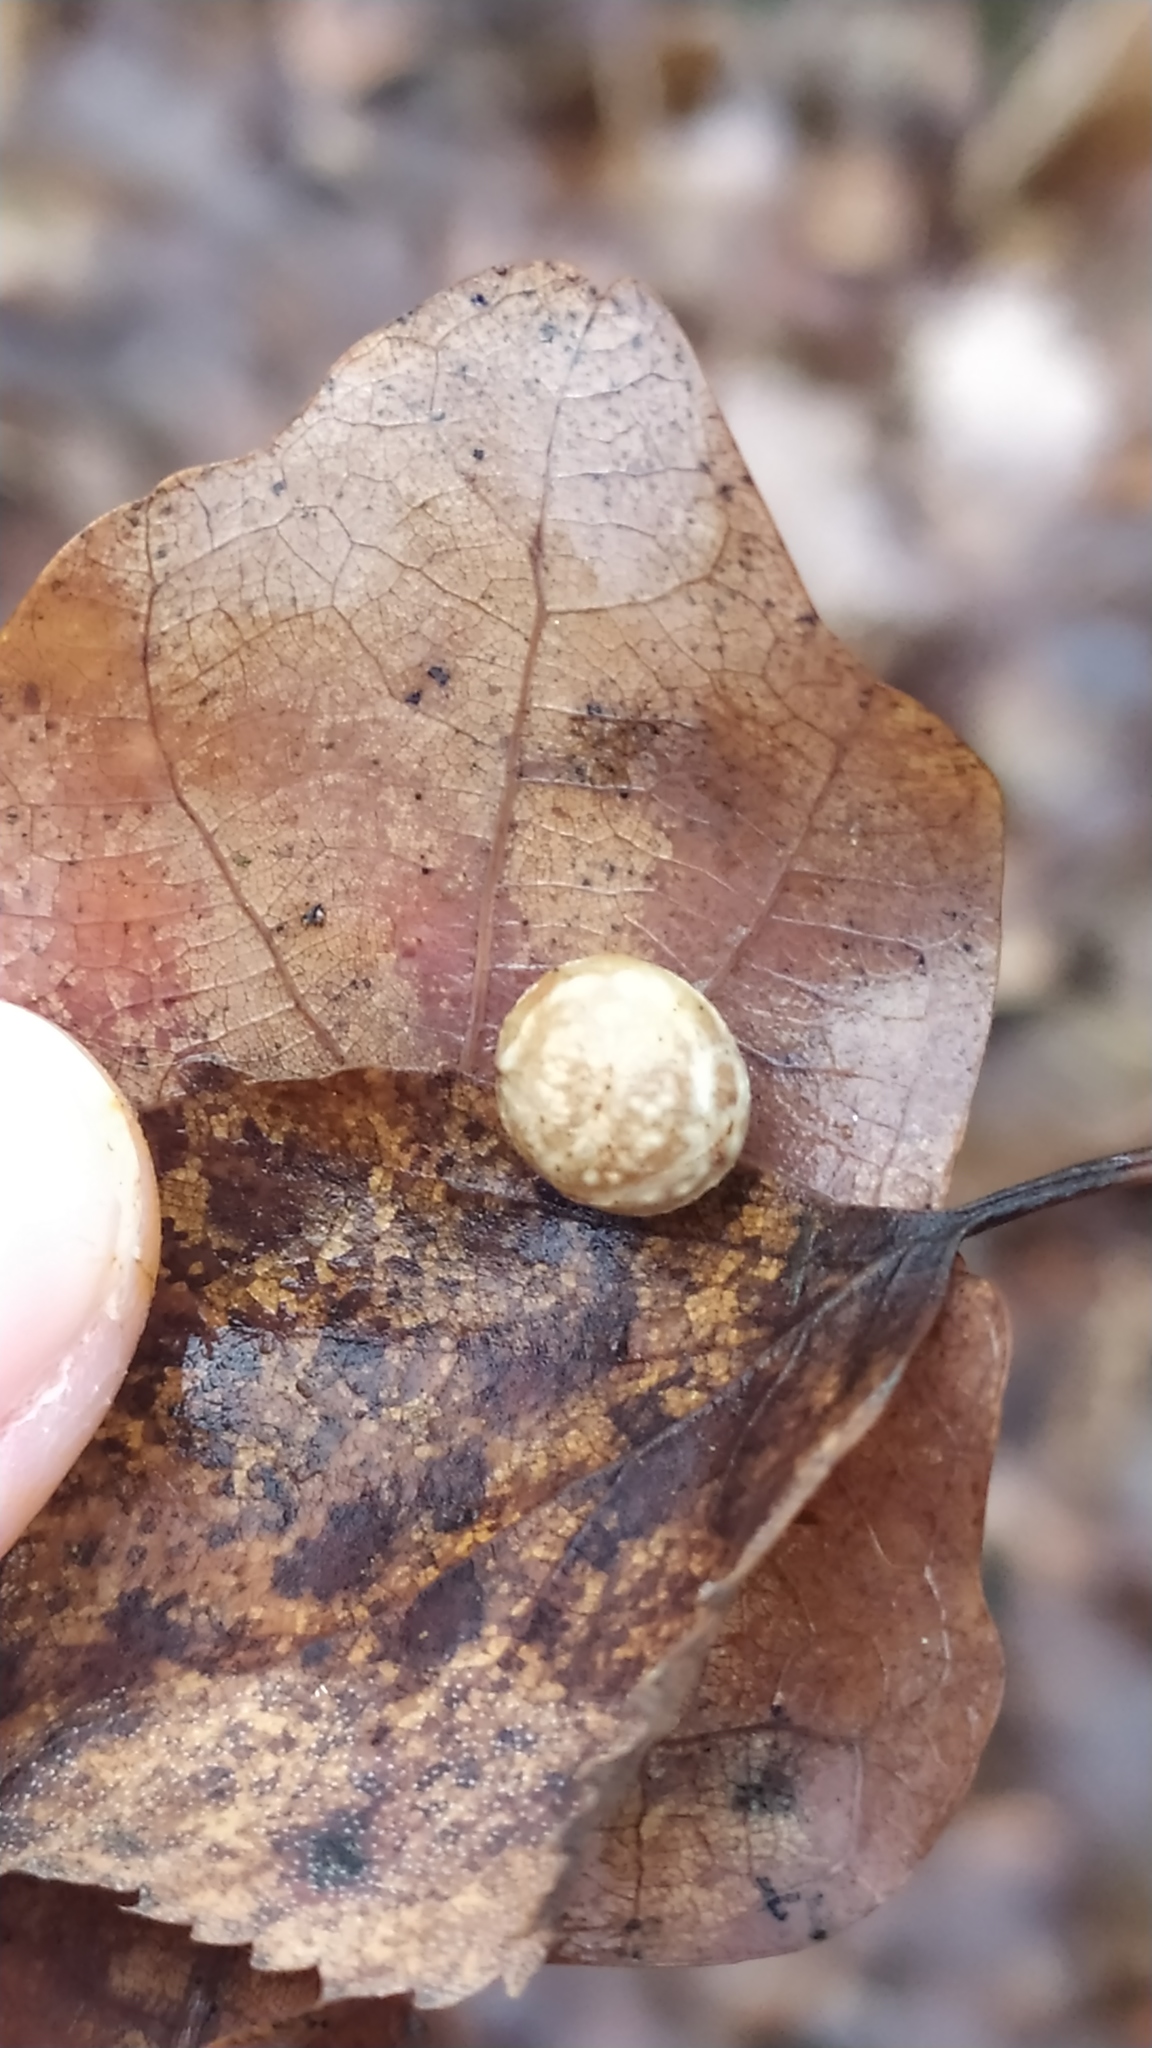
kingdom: Animalia
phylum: Arthropoda
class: Insecta
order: Hymenoptera
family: Cynipidae
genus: Cynips
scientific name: Cynips longiventris
